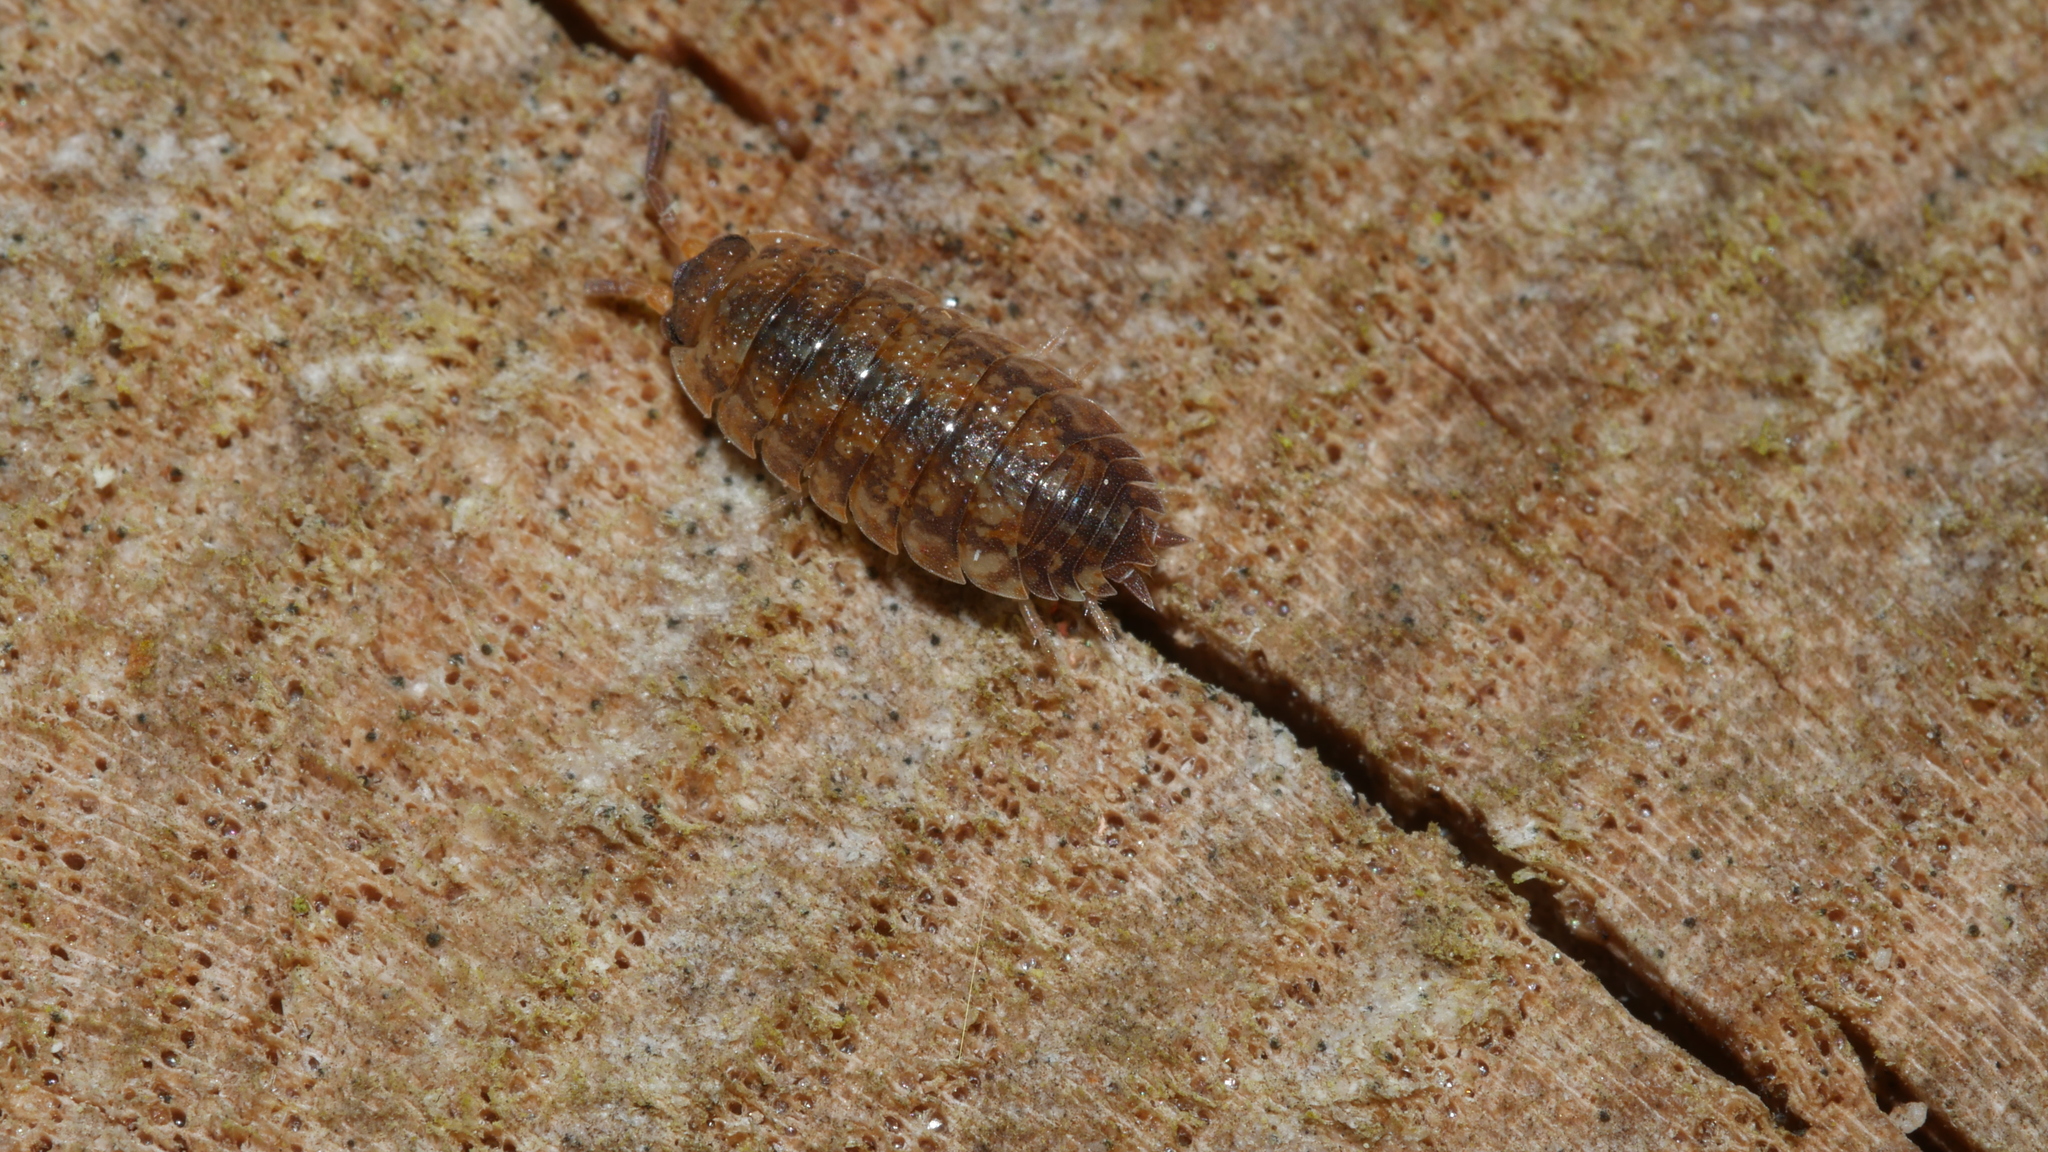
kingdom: Animalia
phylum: Arthropoda
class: Malacostraca
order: Isopoda
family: Porcellionidae
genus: Porcellio
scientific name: Porcellio scaber
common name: Common rough woodlouse
